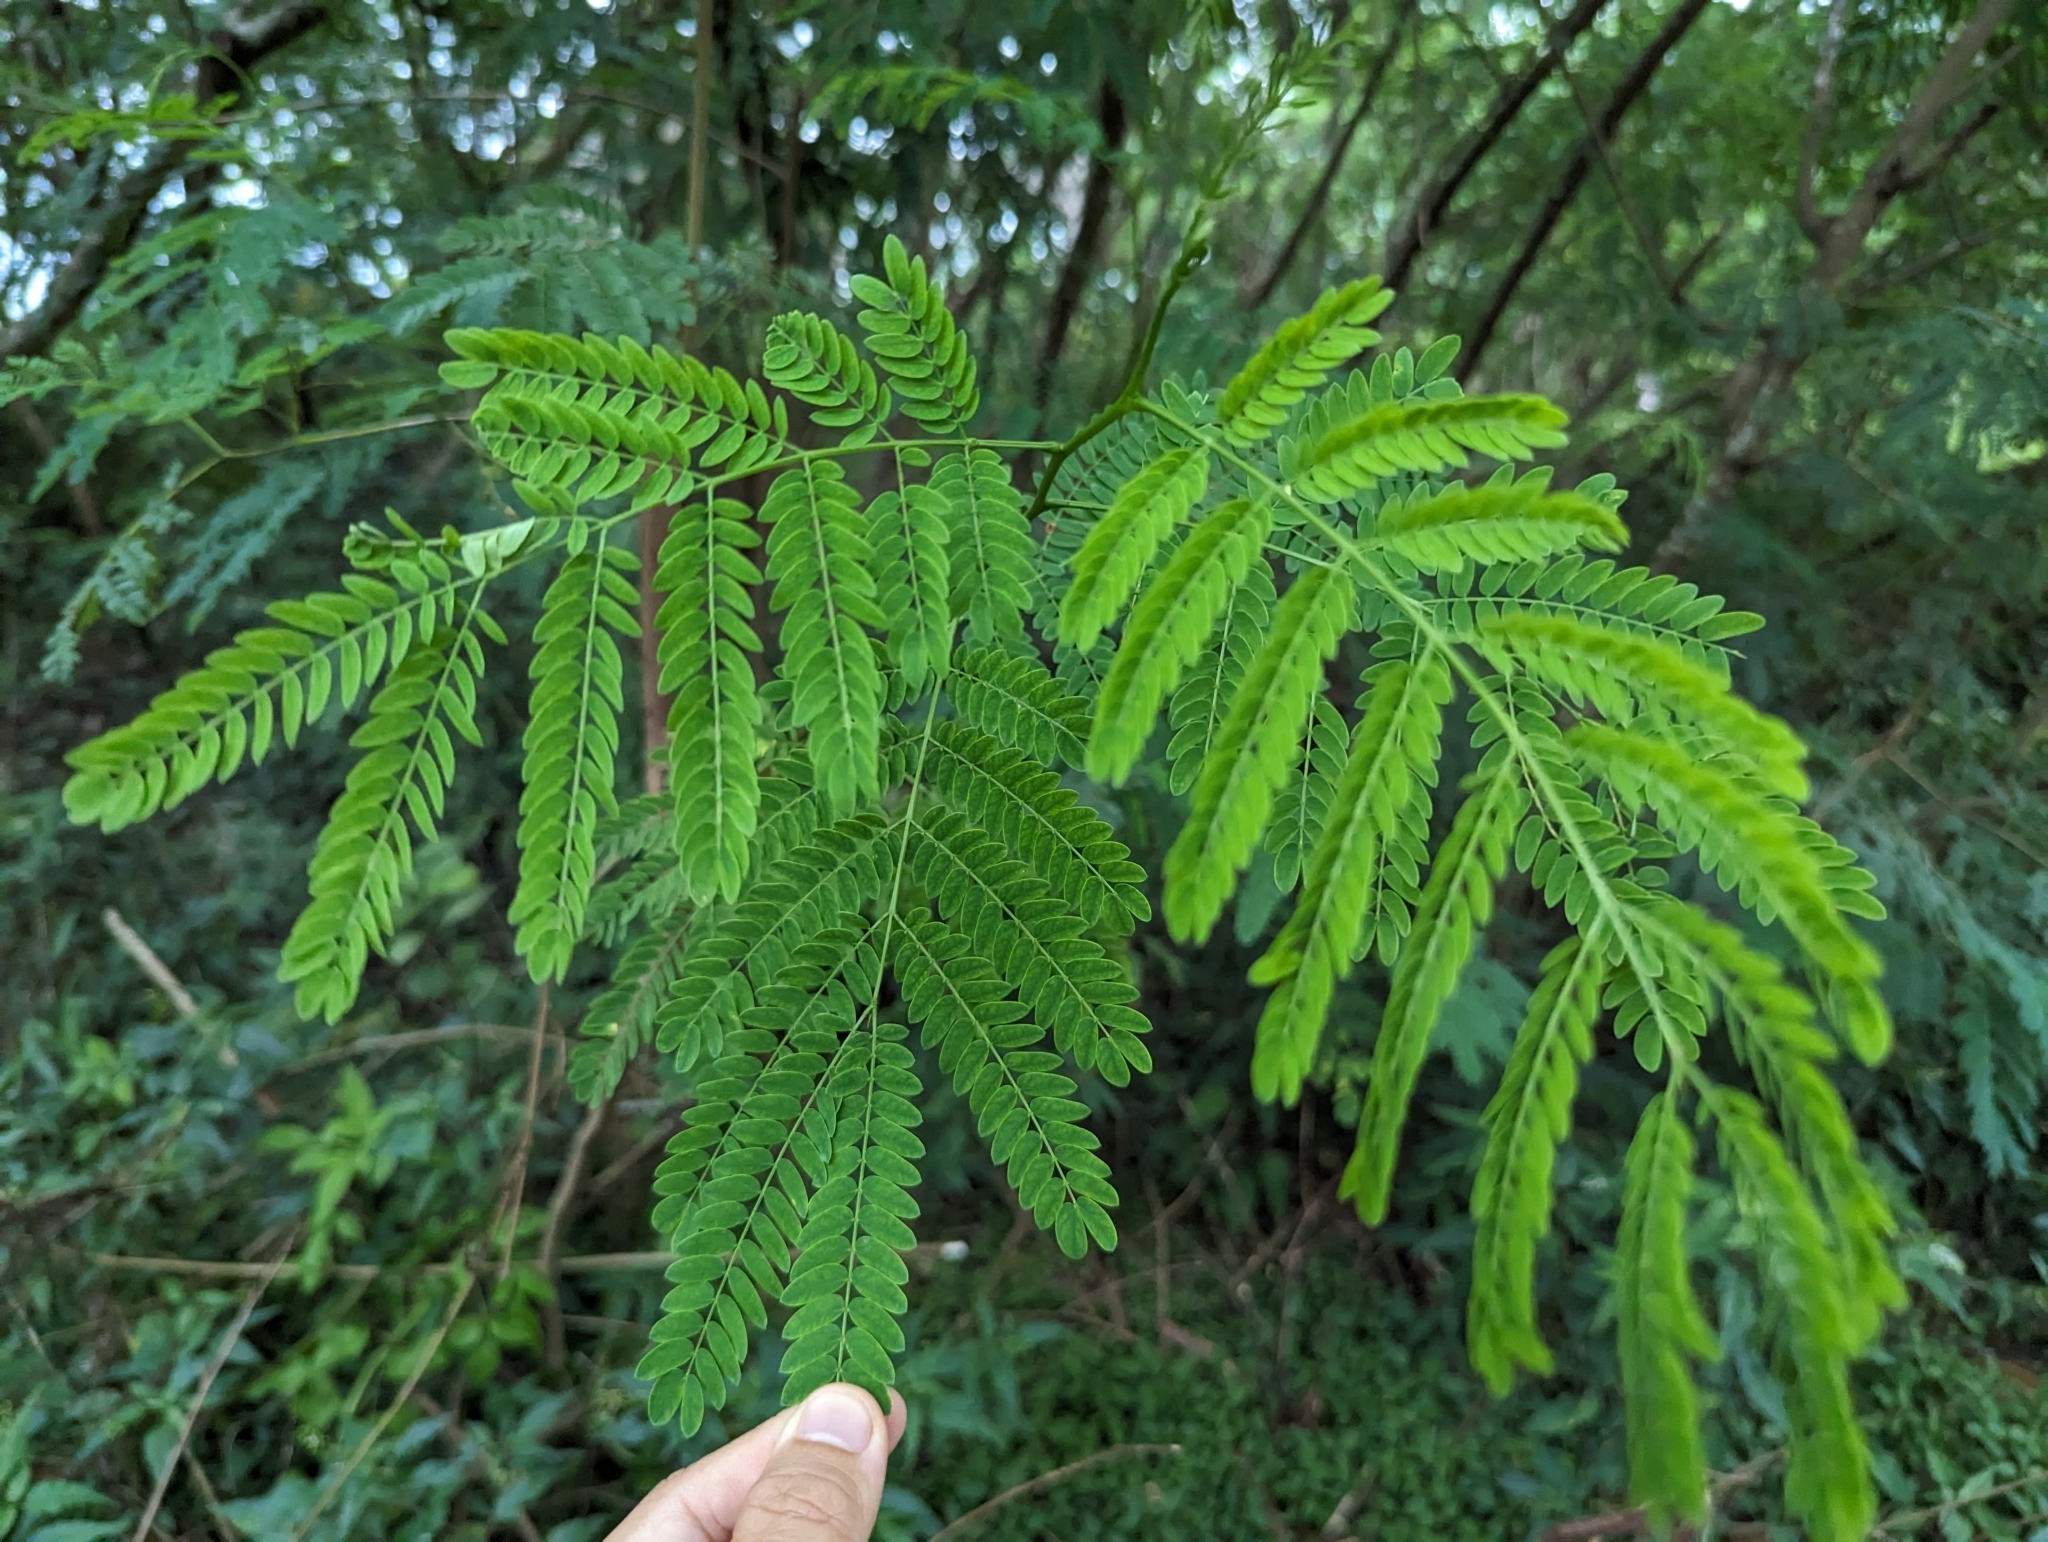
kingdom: Plantae
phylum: Tracheophyta
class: Magnoliopsida
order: Fabales
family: Fabaceae
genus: Leucaena
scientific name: Leucaena leucocephala
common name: White leadtree
